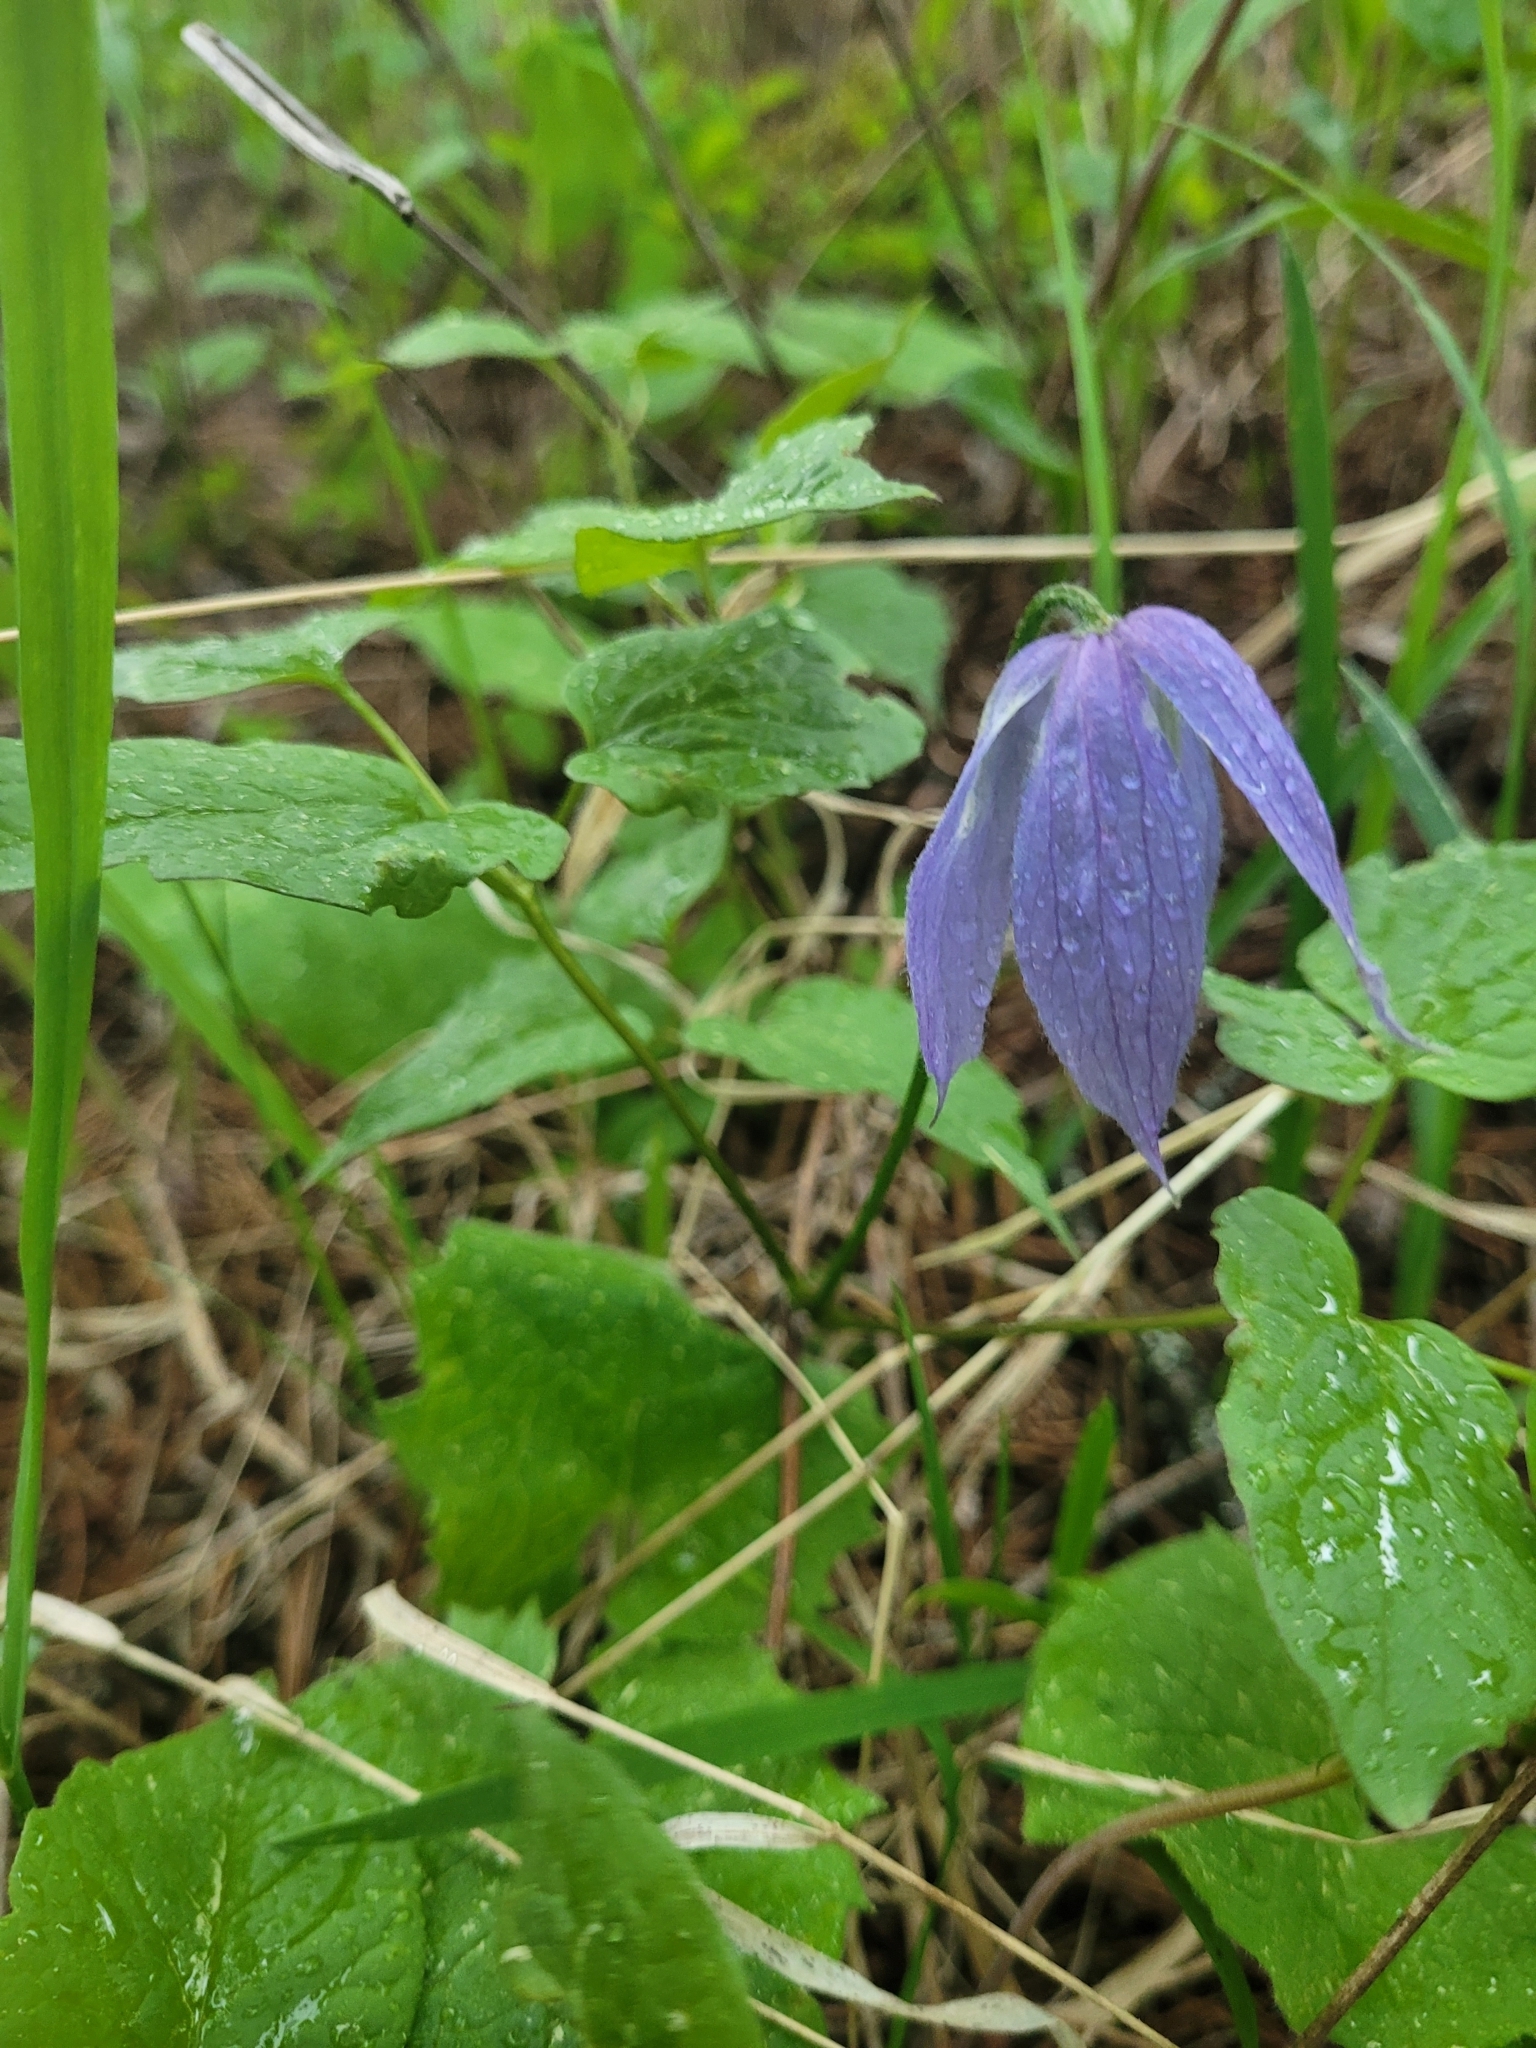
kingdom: Plantae
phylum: Tracheophyta
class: Magnoliopsida
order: Ranunculales
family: Ranunculaceae
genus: Clematis
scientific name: Clematis occidentalis
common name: Purple clematis
